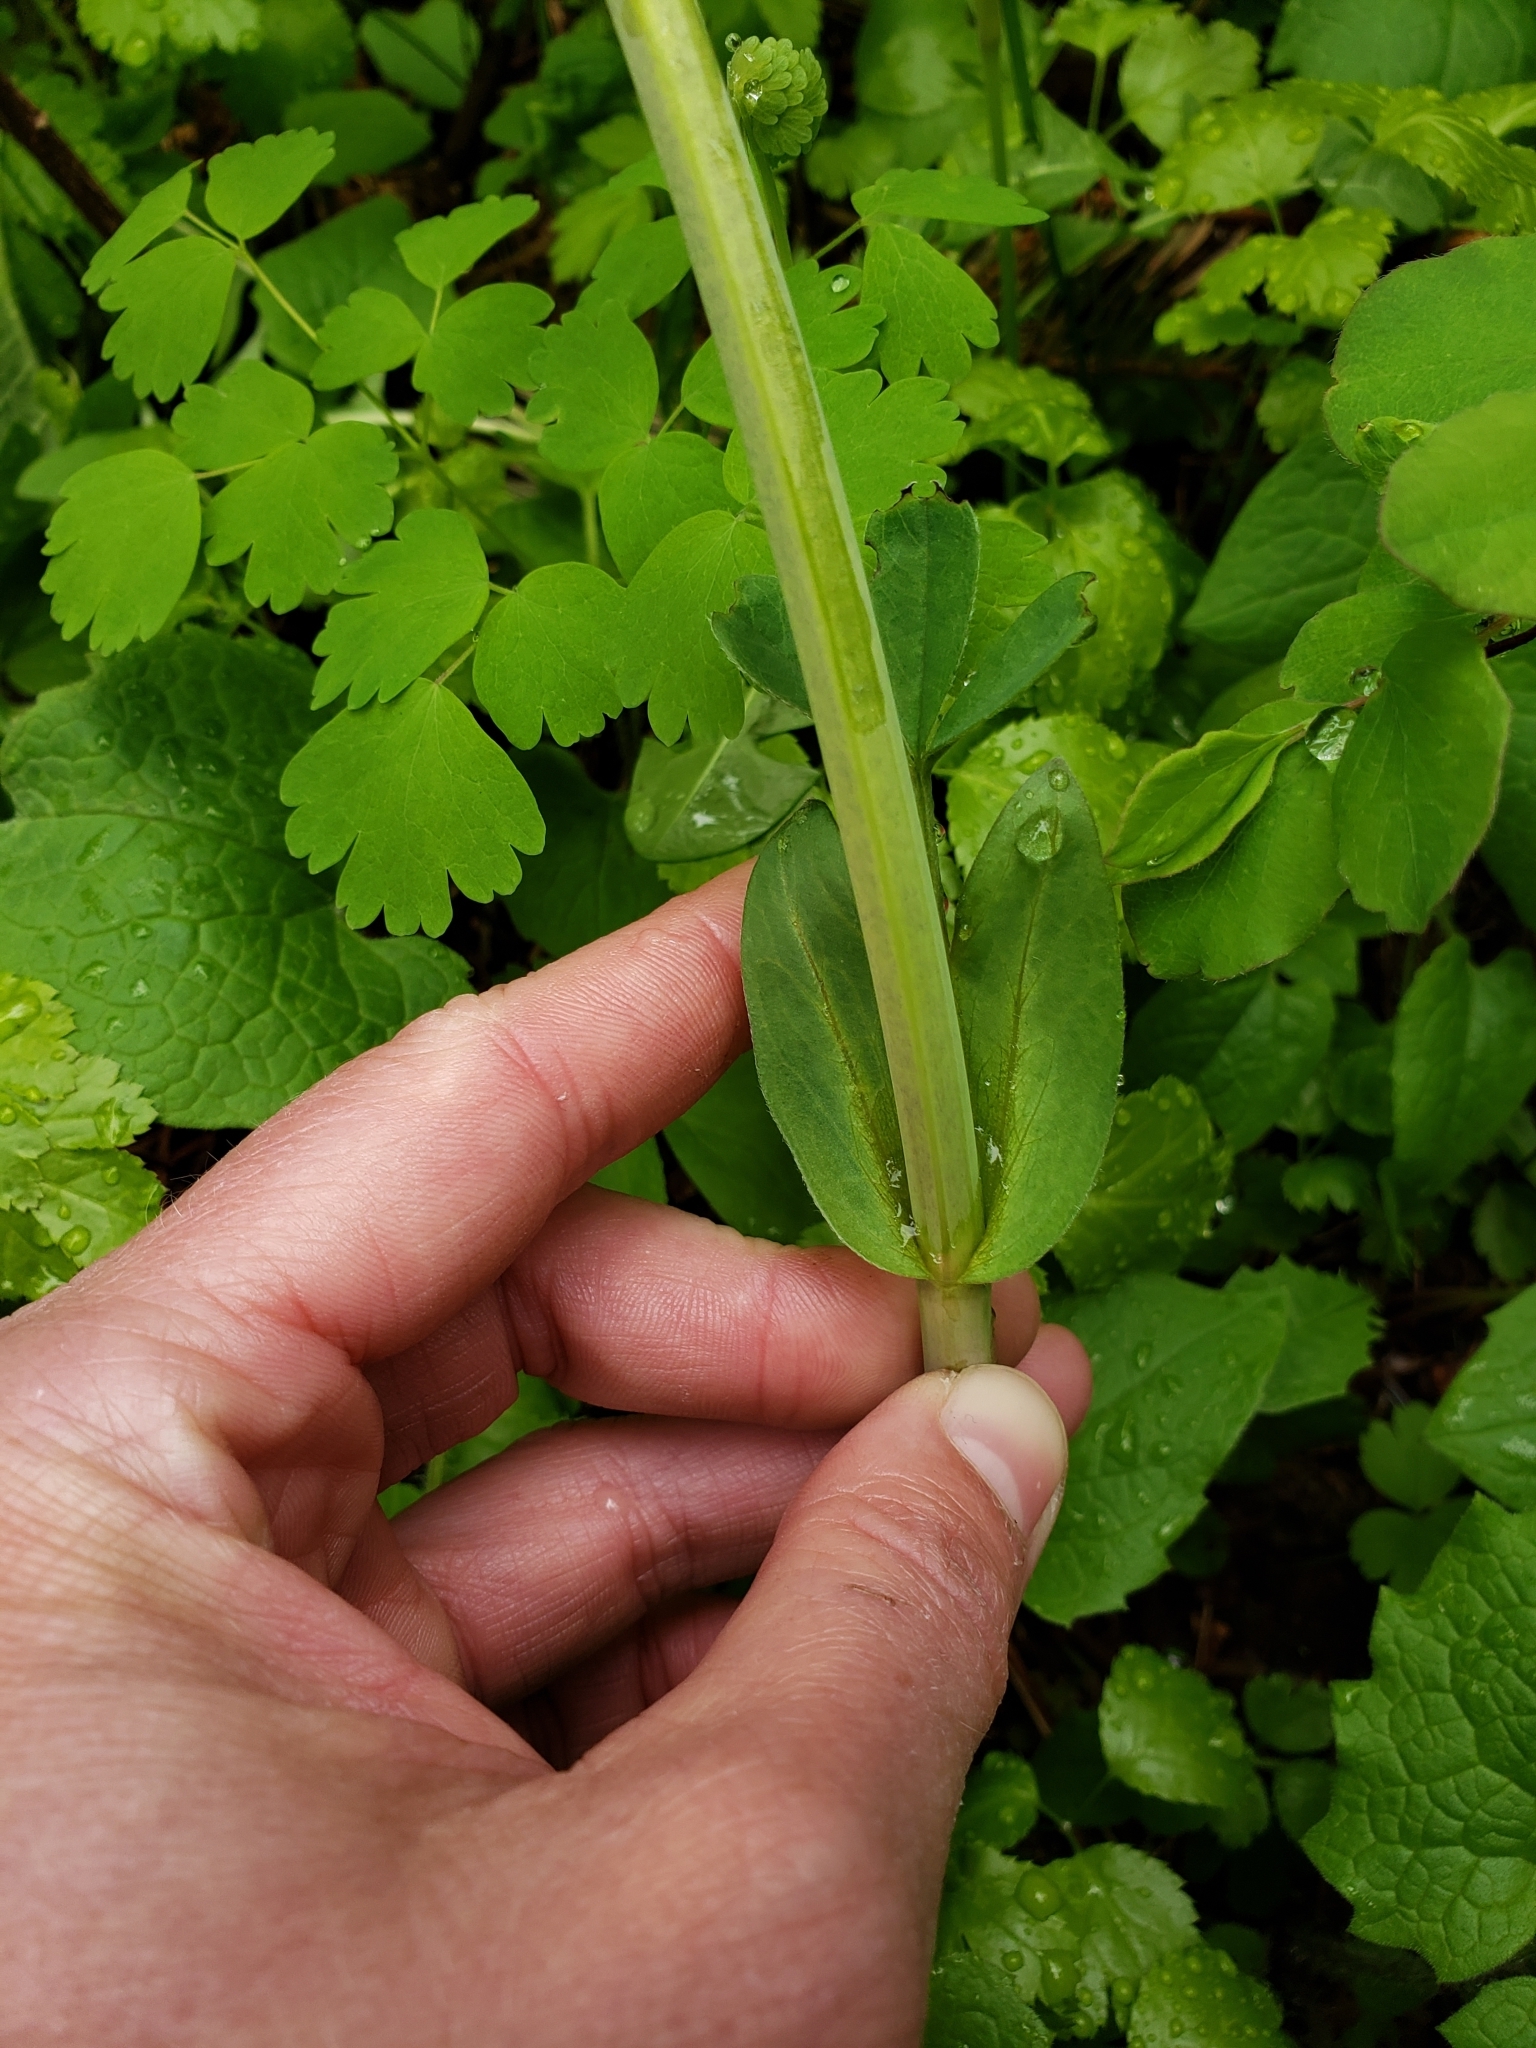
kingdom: Plantae
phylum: Tracheophyta
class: Magnoliopsida
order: Fabales
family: Fabaceae
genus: Thermopsis
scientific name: Thermopsis montana
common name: False lupin
